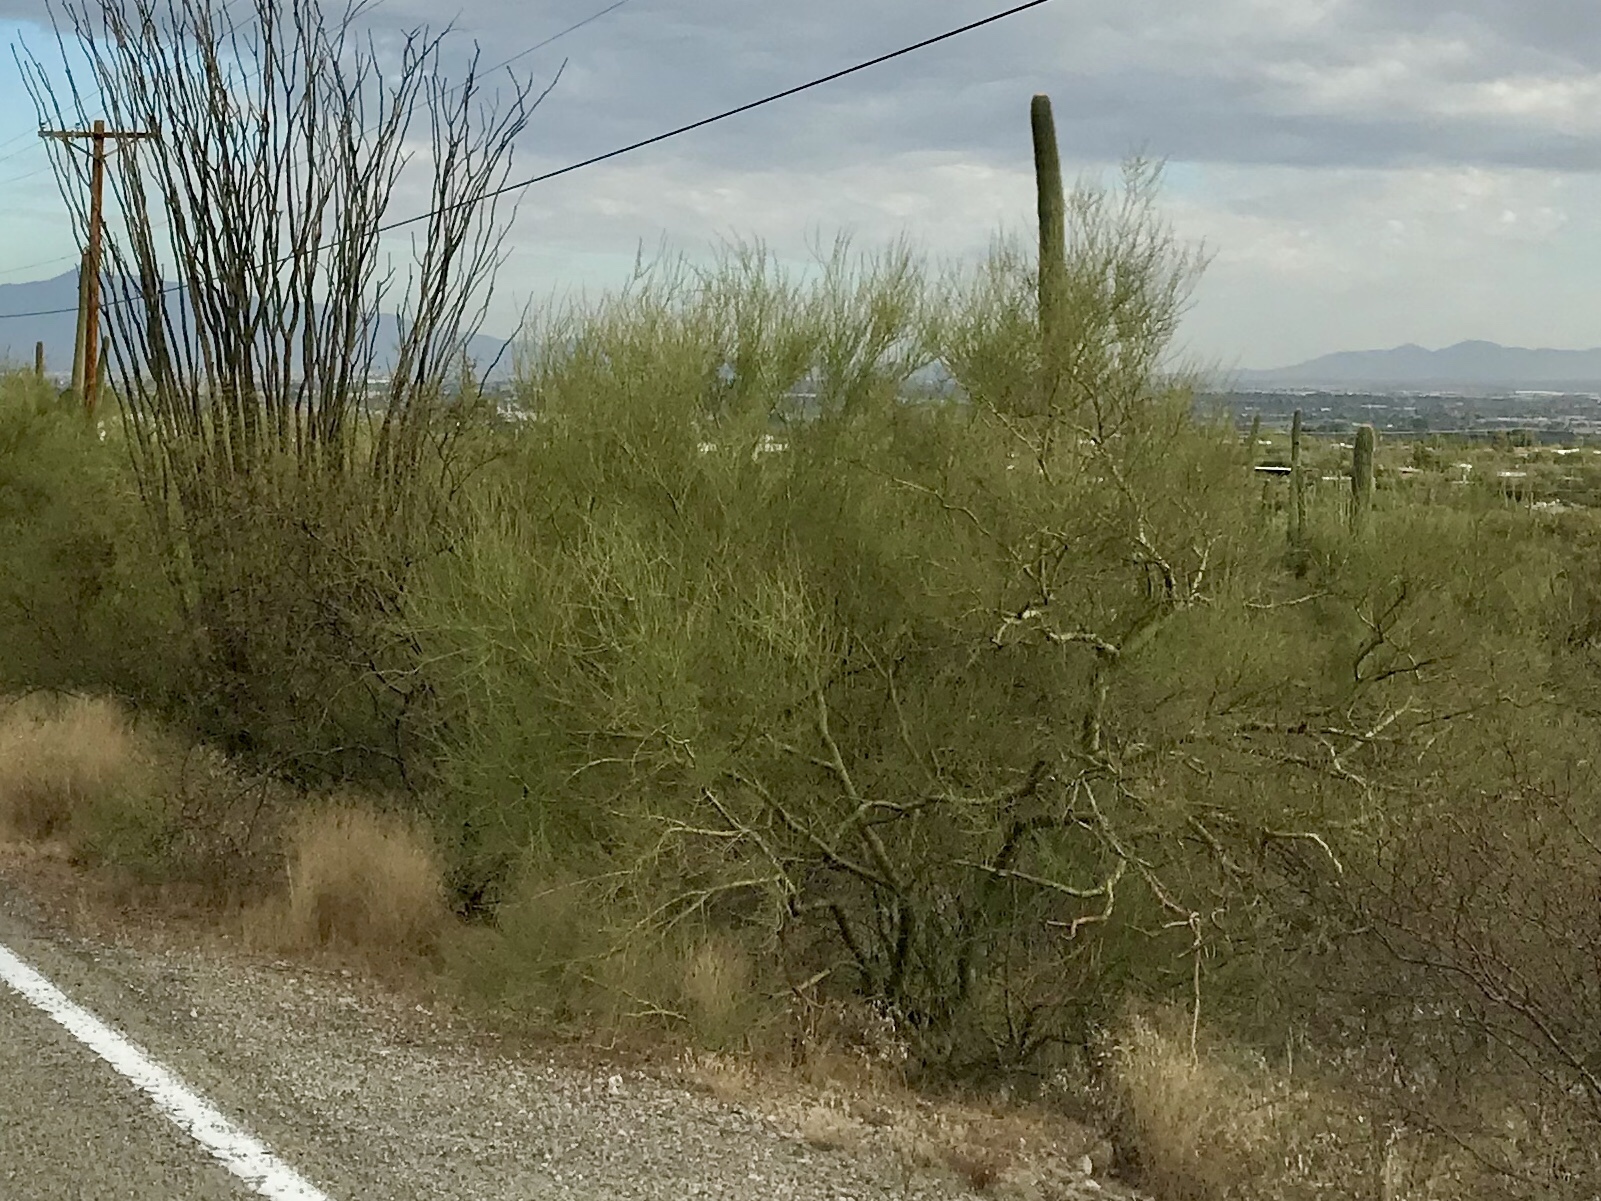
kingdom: Plantae
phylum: Tracheophyta
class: Magnoliopsida
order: Fabales
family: Fabaceae
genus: Parkinsonia
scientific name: Parkinsonia microphylla
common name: Yellow paloverde
